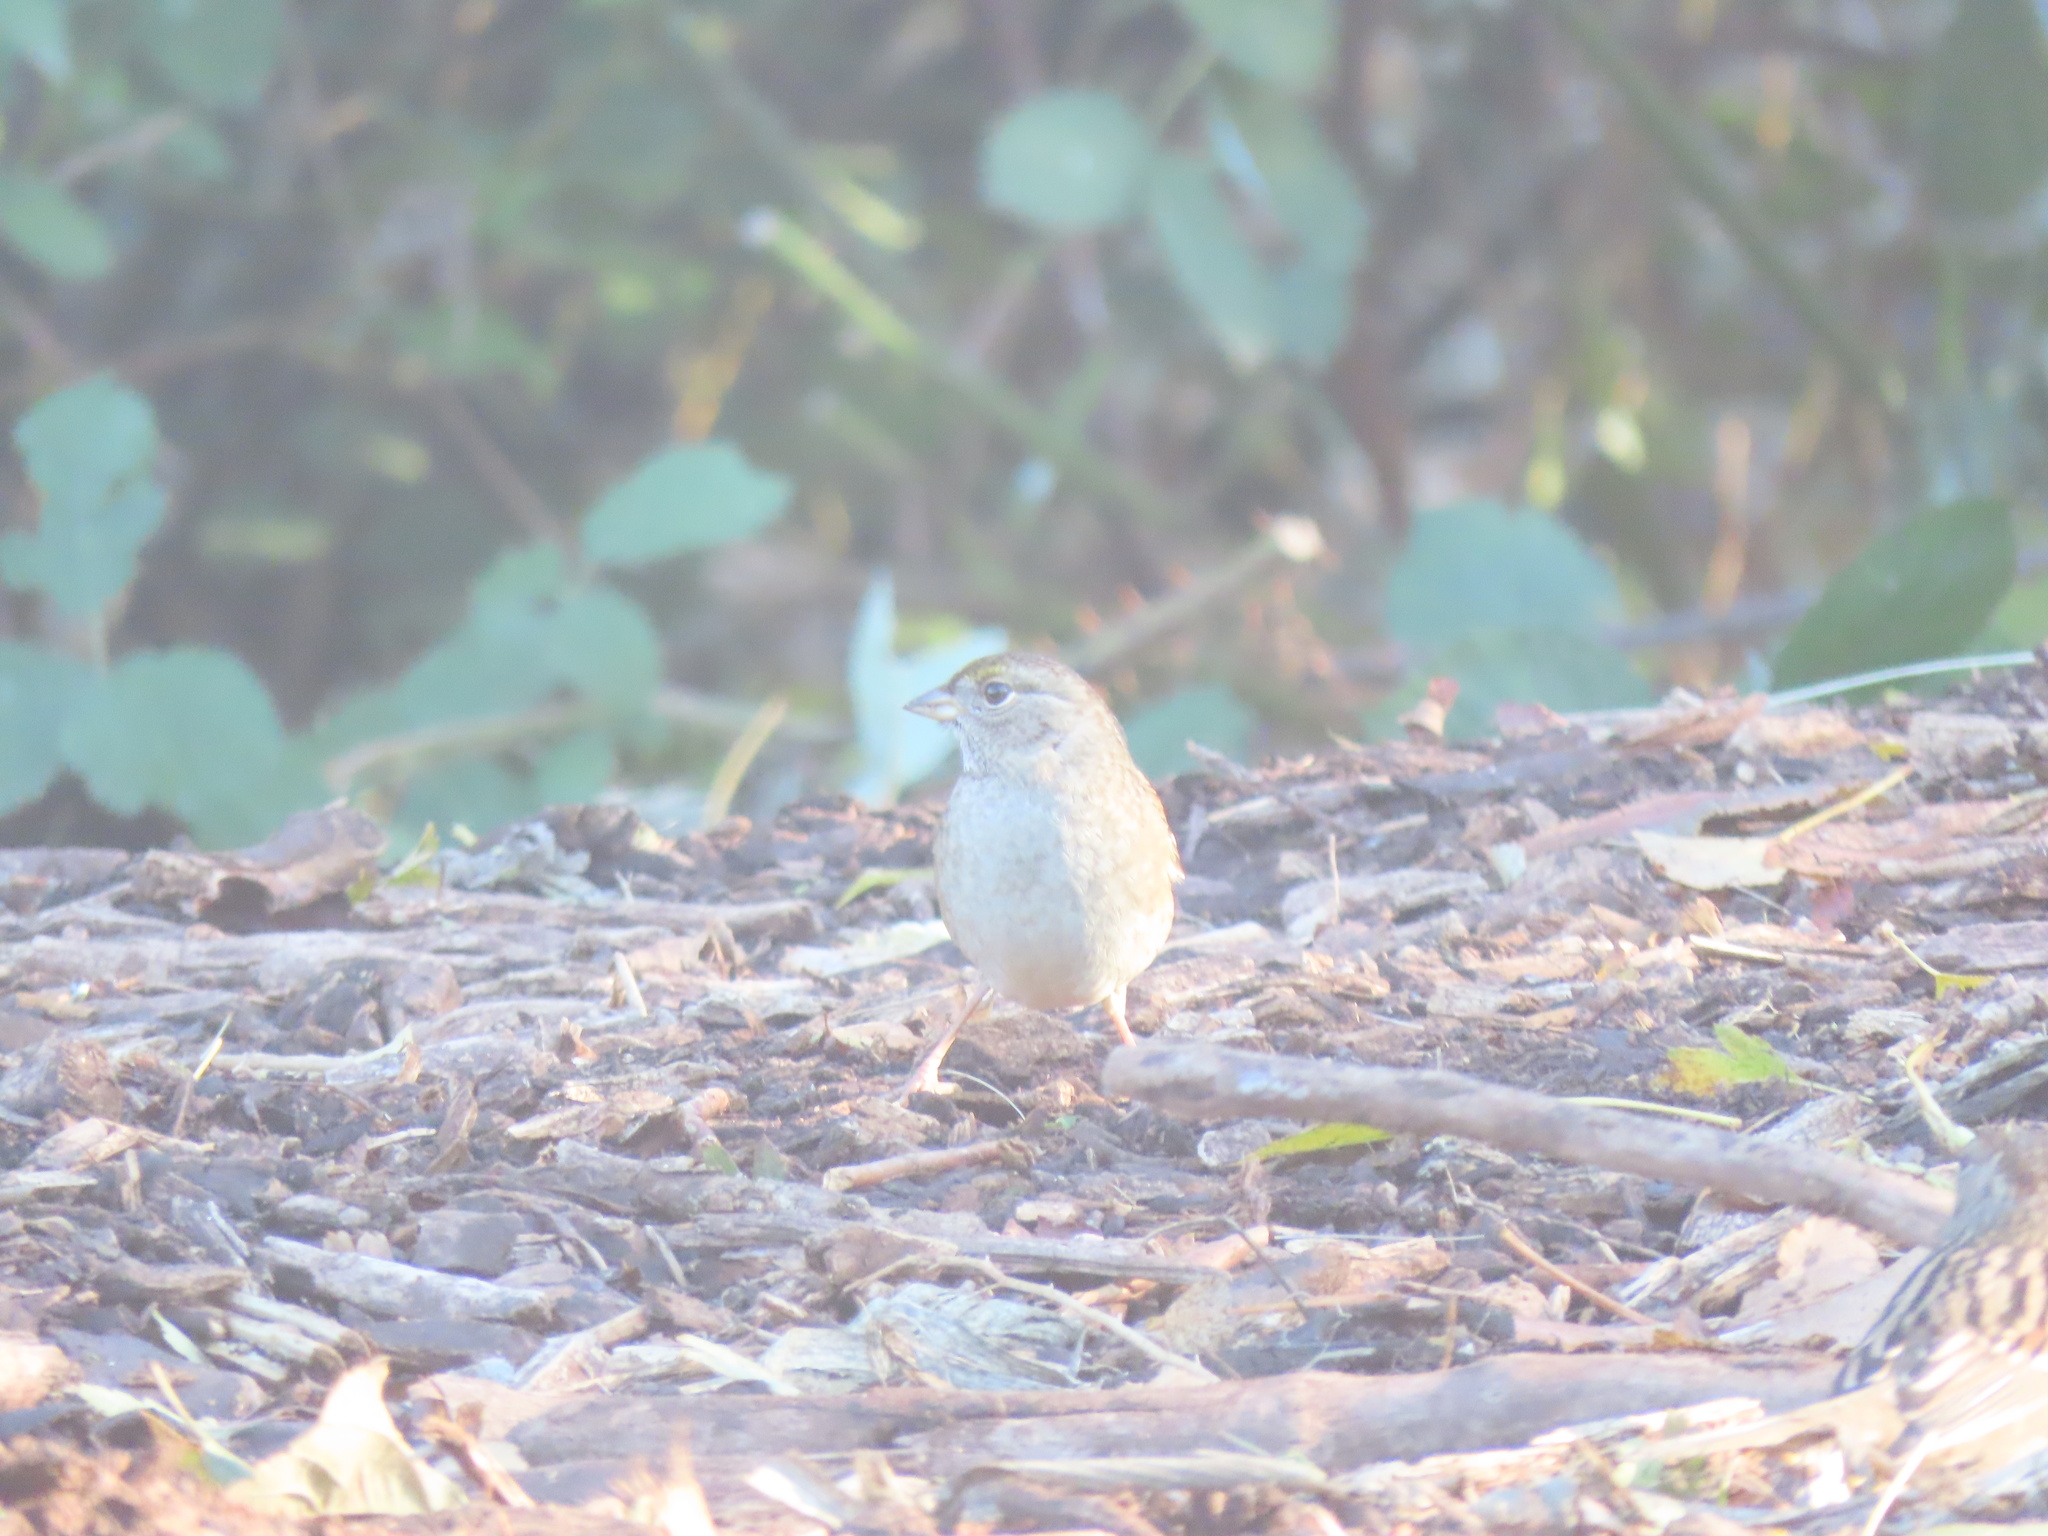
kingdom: Animalia
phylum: Chordata
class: Aves
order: Passeriformes
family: Passerellidae
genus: Zonotrichia
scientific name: Zonotrichia atricapilla
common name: Golden-crowned sparrow
